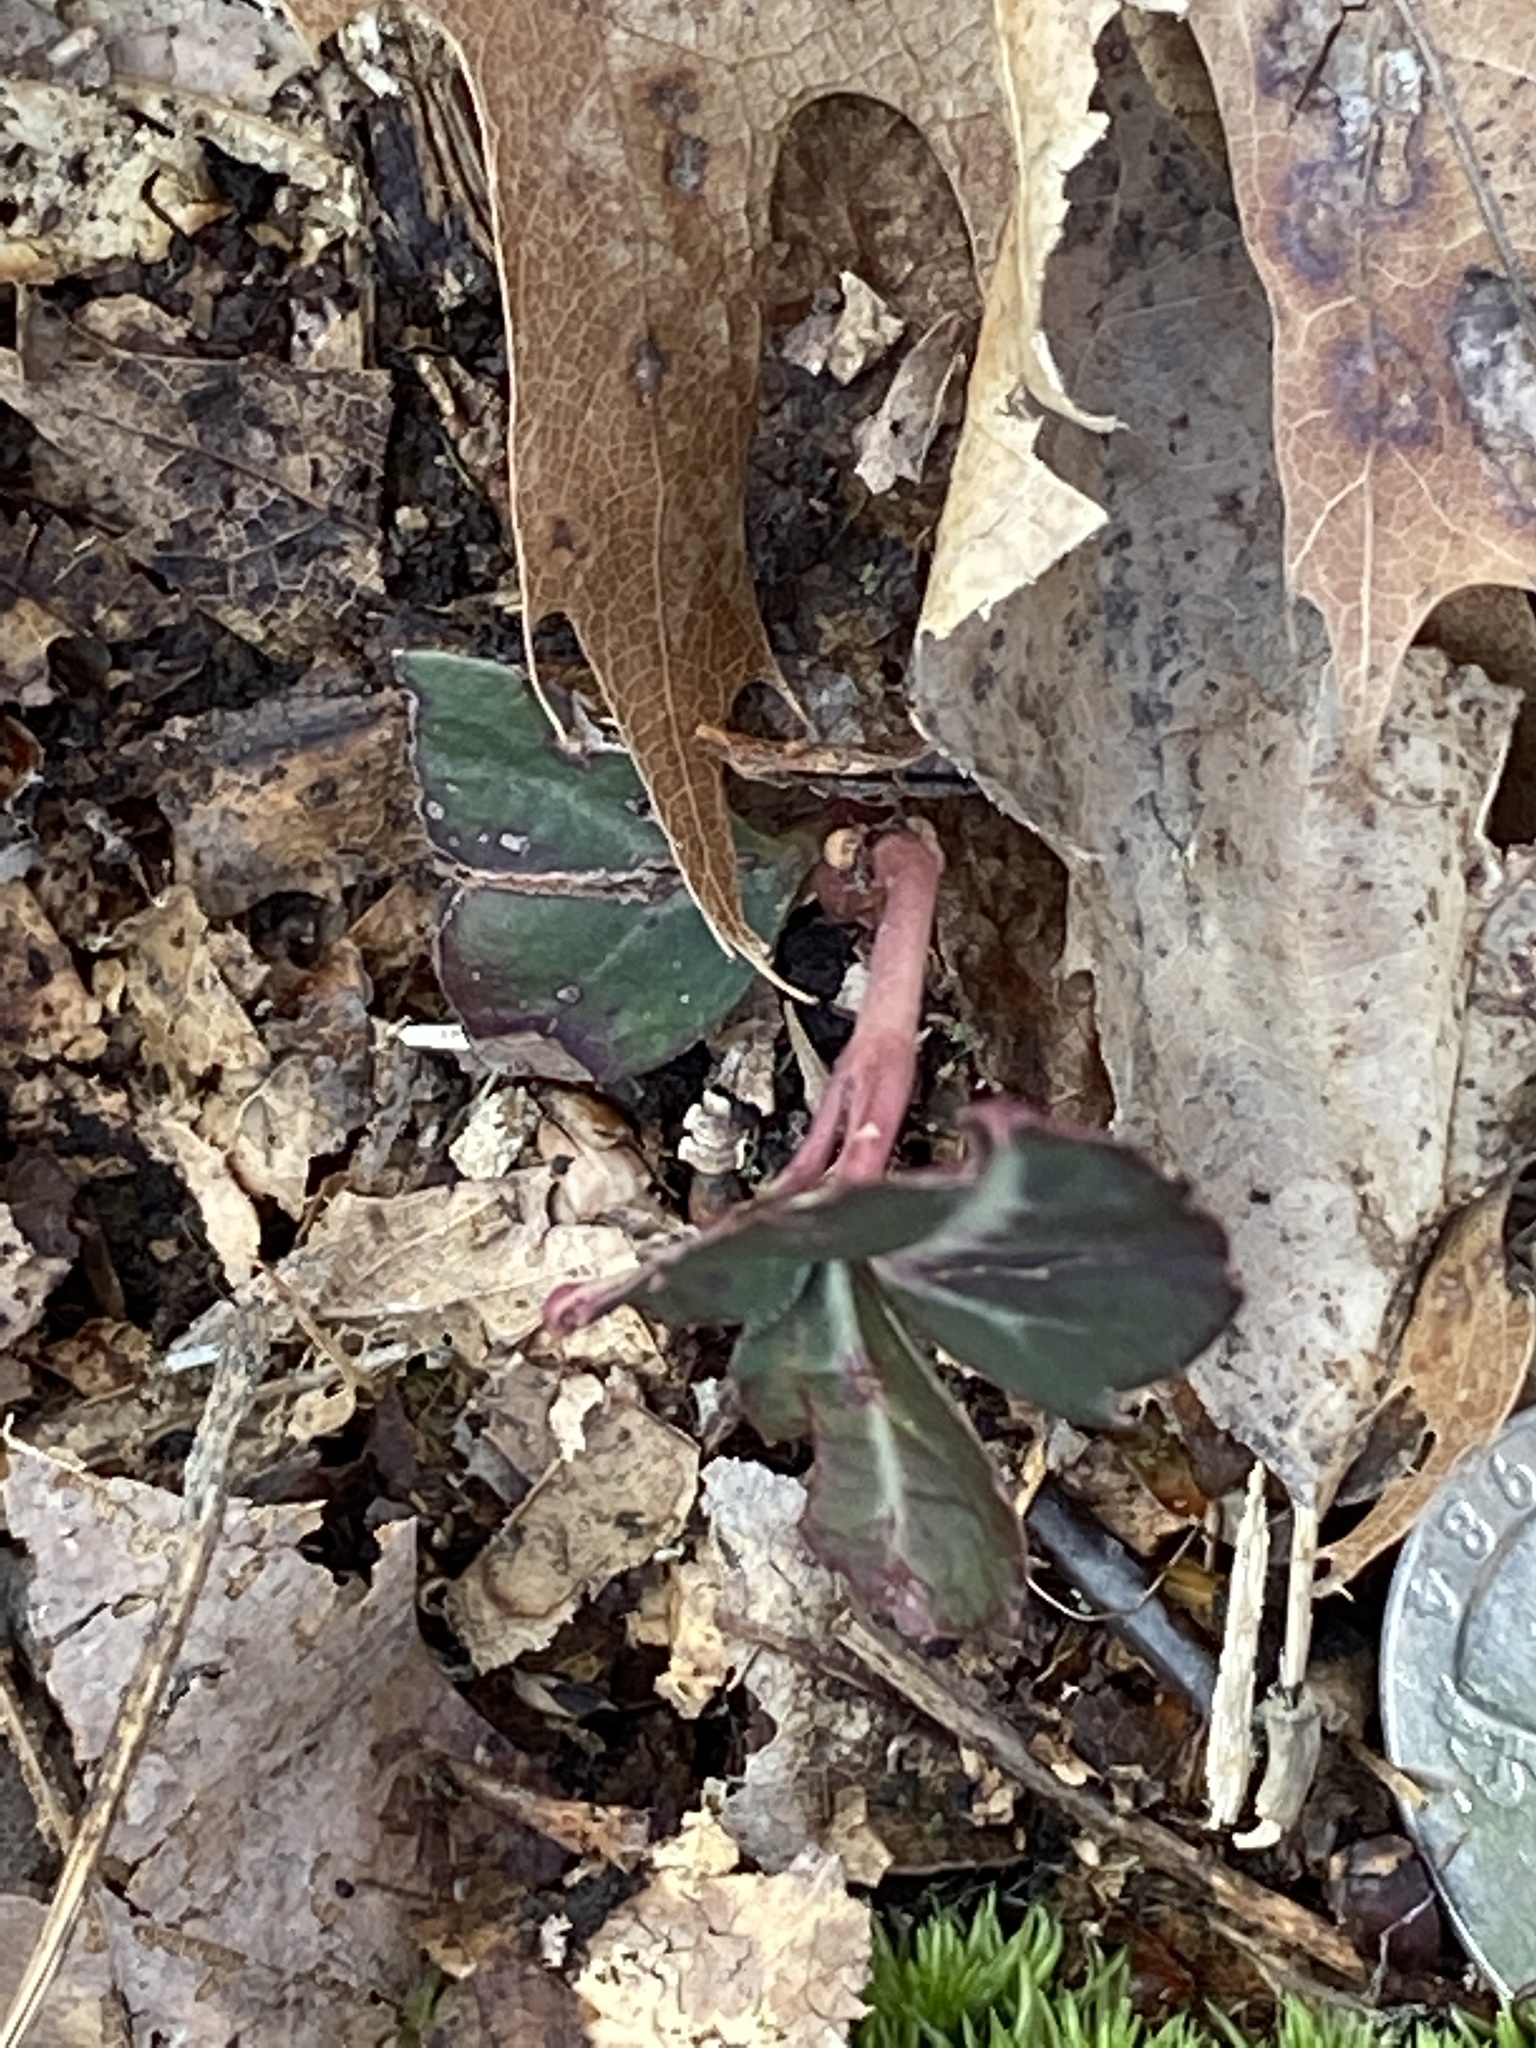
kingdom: Plantae
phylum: Tracheophyta
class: Magnoliopsida
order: Ericales
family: Ericaceae
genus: Chimaphila
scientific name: Chimaphila maculata
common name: Spotted pipsissewa
